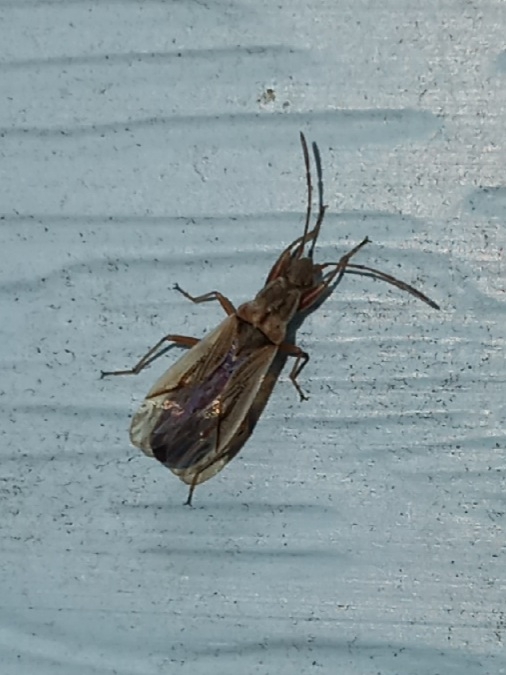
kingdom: Animalia
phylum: Arthropoda
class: Insecta
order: Hemiptera
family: Rhyparochromidae
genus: Paromius
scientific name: Paromius longulus
